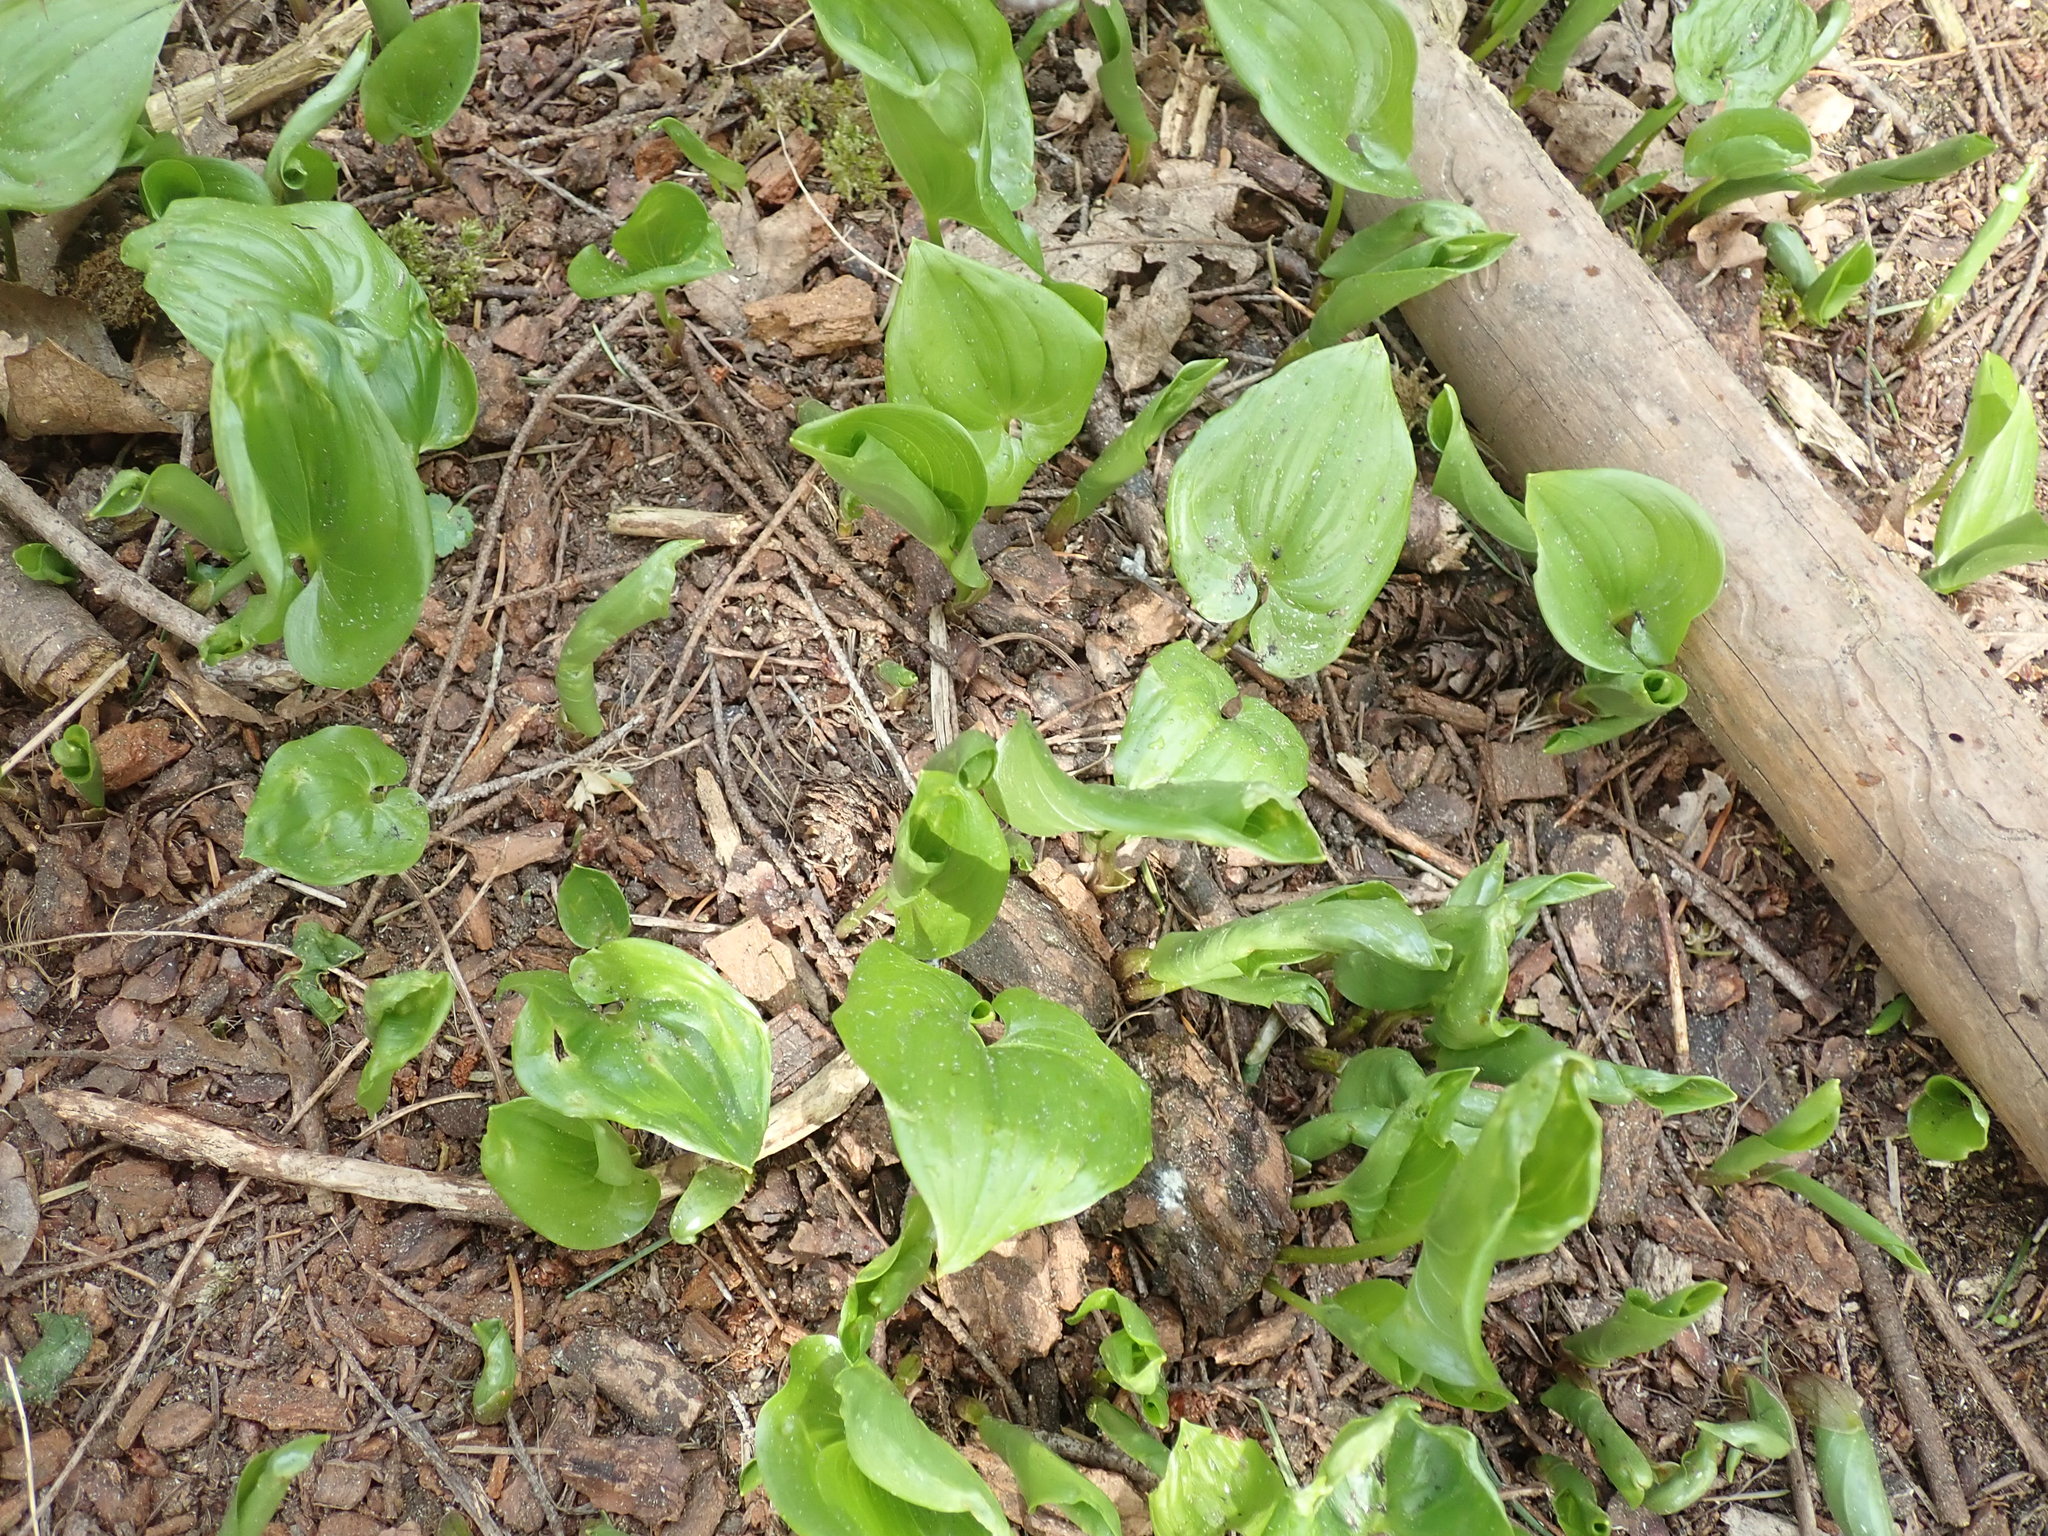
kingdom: Plantae
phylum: Tracheophyta
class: Liliopsida
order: Asparagales
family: Asparagaceae
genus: Maianthemum
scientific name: Maianthemum dilatatum
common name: False lily-of-the-valley
